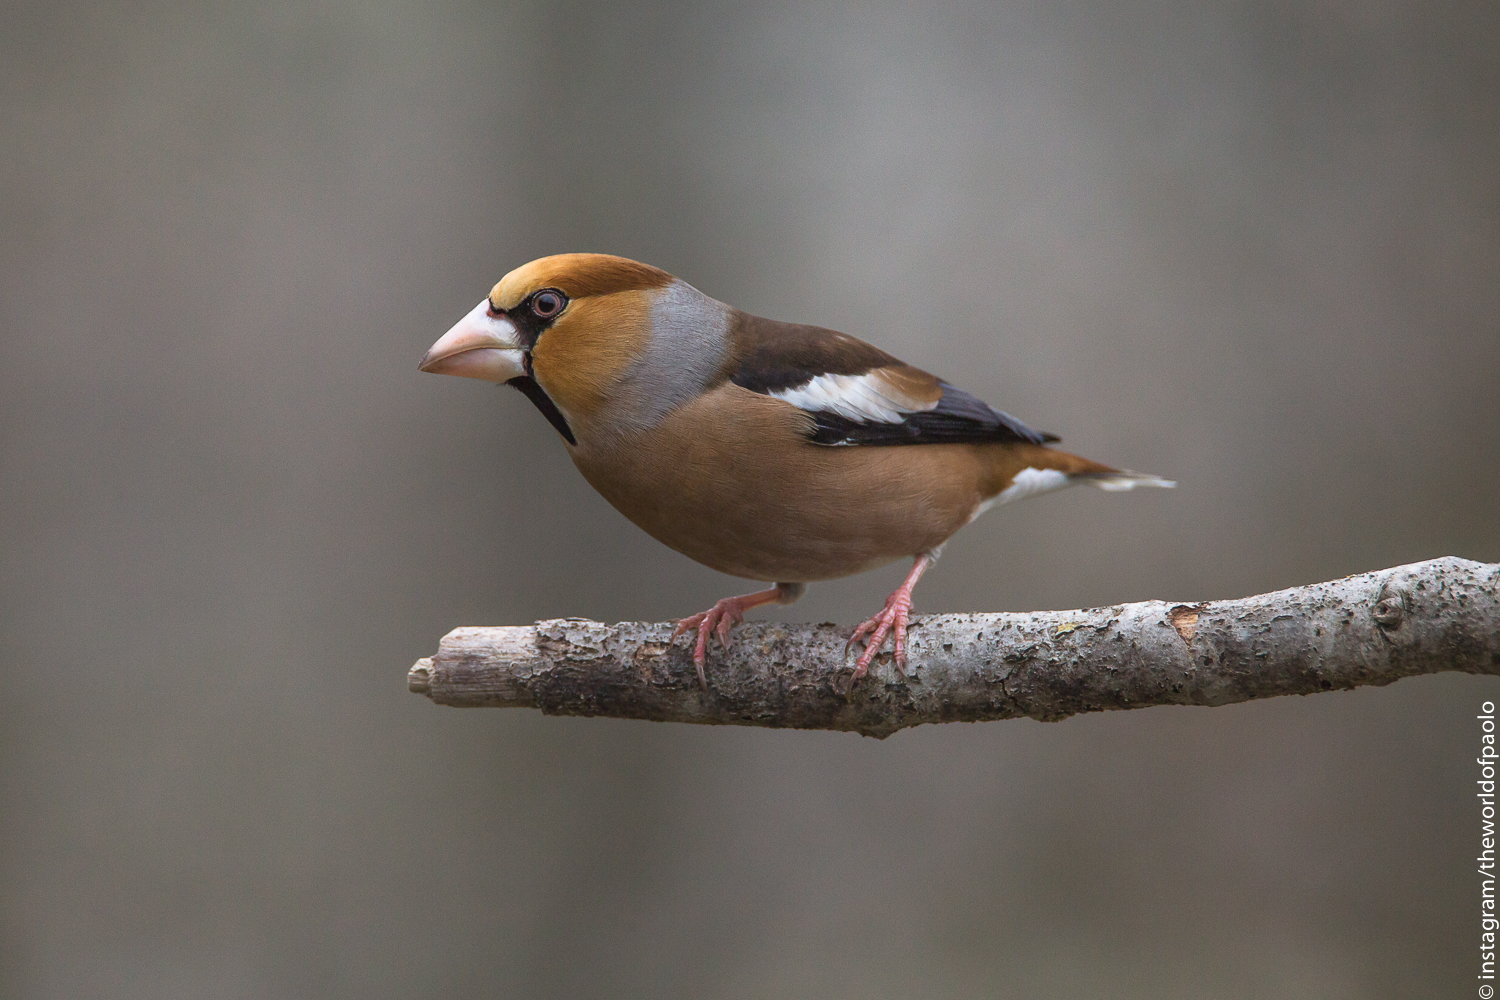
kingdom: Animalia
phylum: Chordata
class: Aves
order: Passeriformes
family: Fringillidae
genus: Coccothraustes
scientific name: Coccothraustes coccothraustes
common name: Hawfinch
